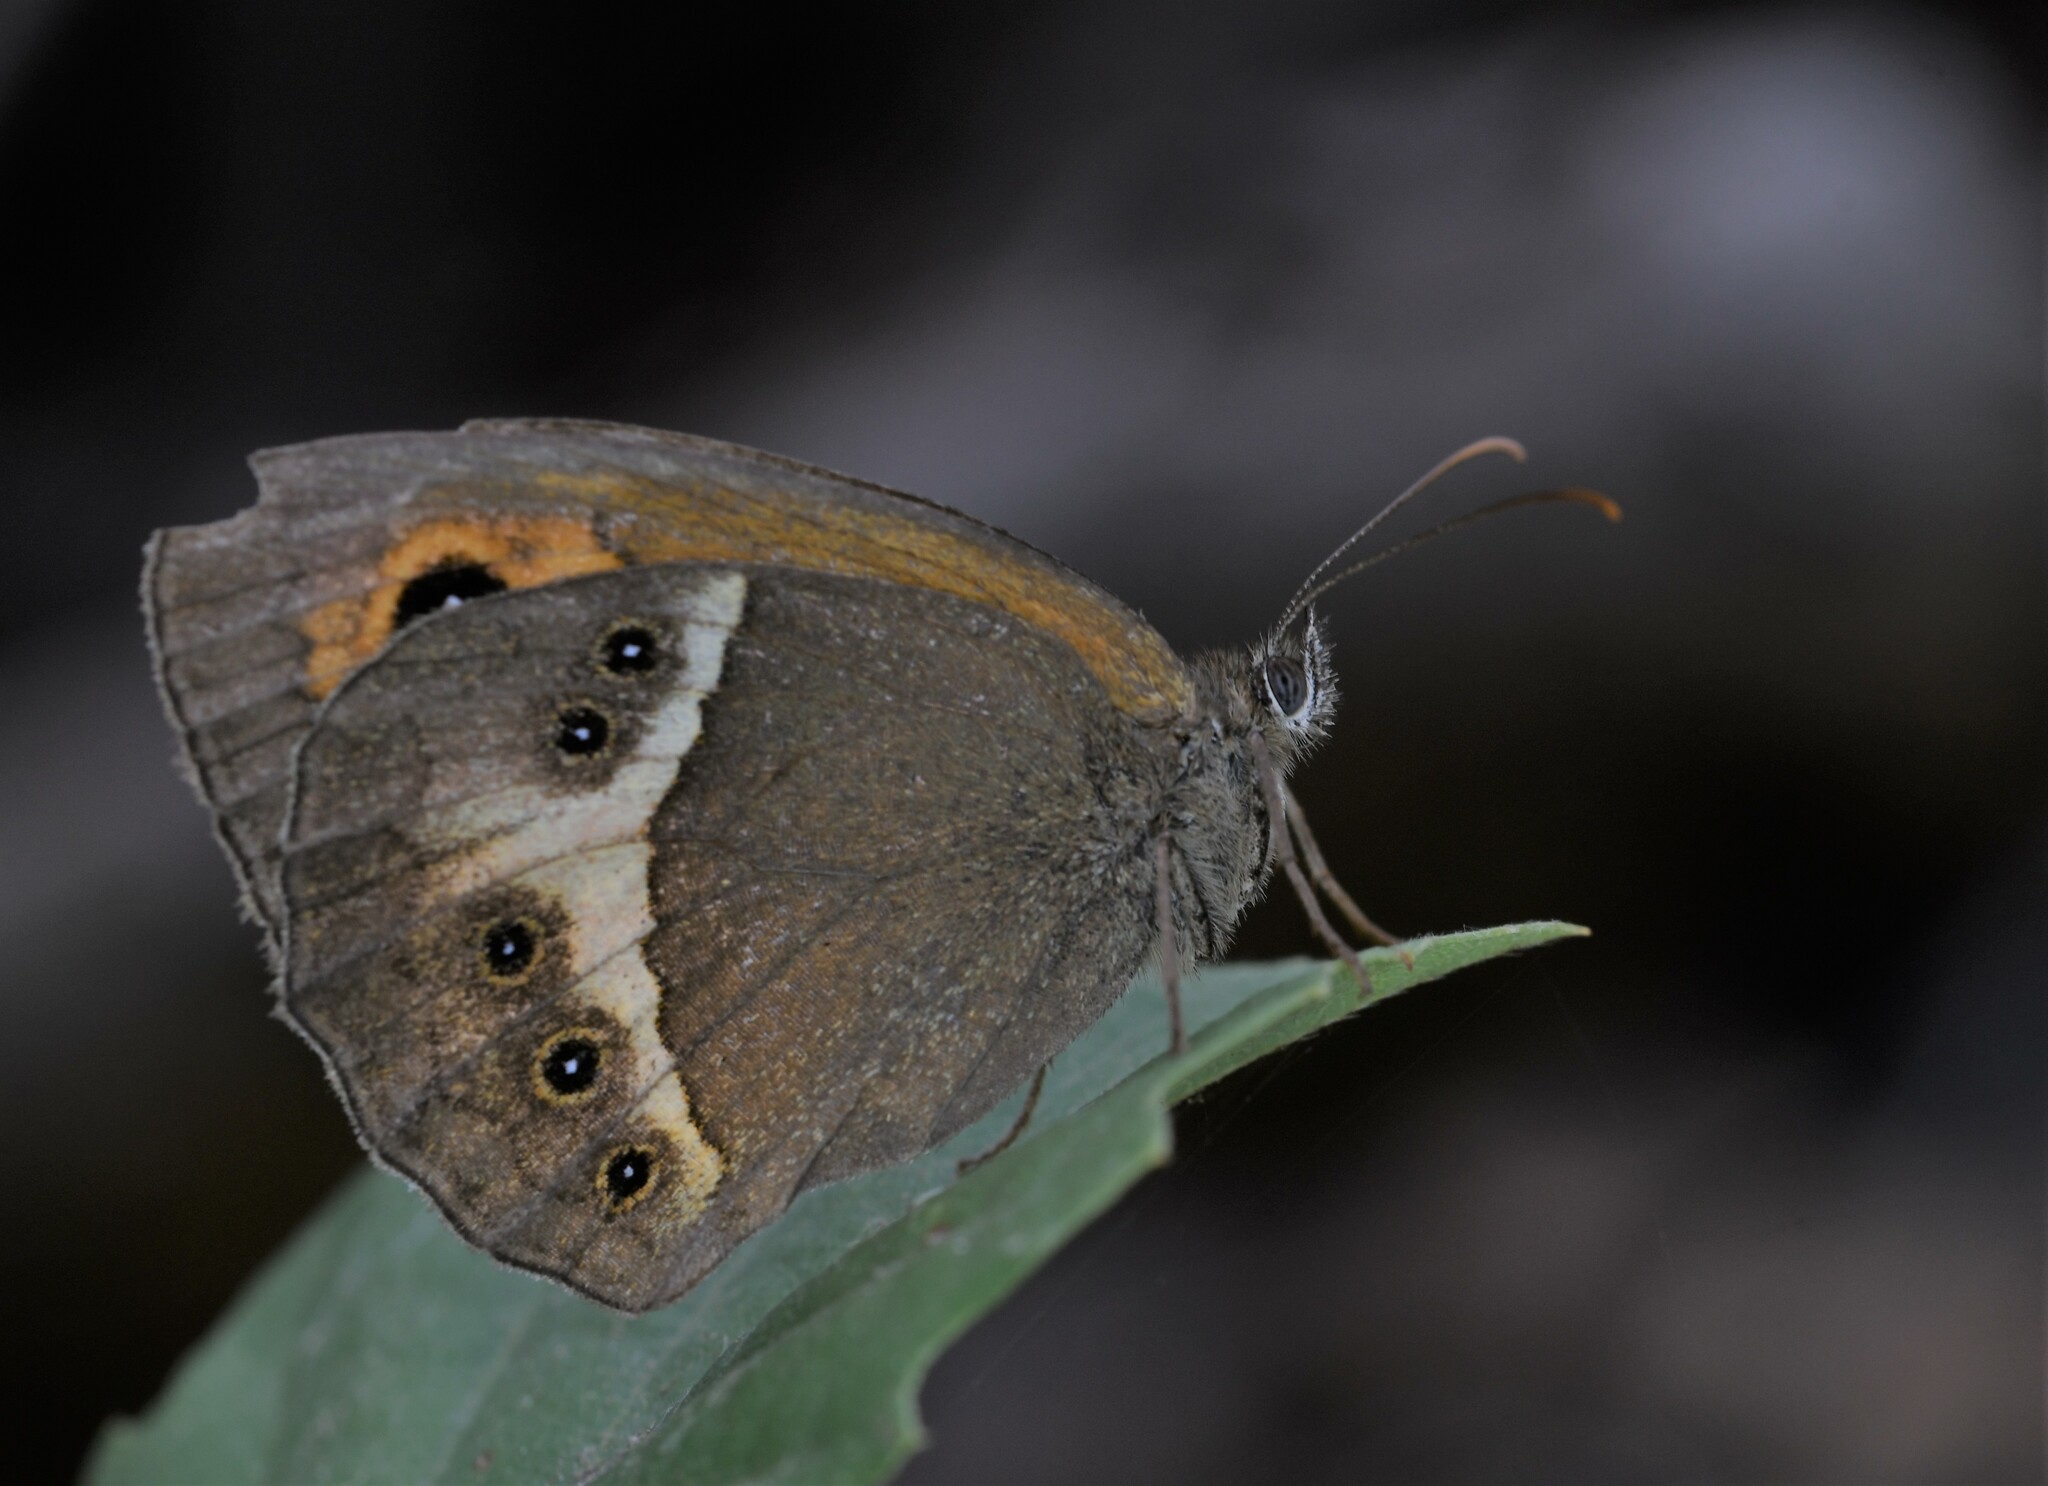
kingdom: Animalia
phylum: Arthropoda
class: Insecta
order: Lepidoptera
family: Nymphalidae
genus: Pyronia
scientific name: Pyronia bathseba
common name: Spanish gatekeeper
